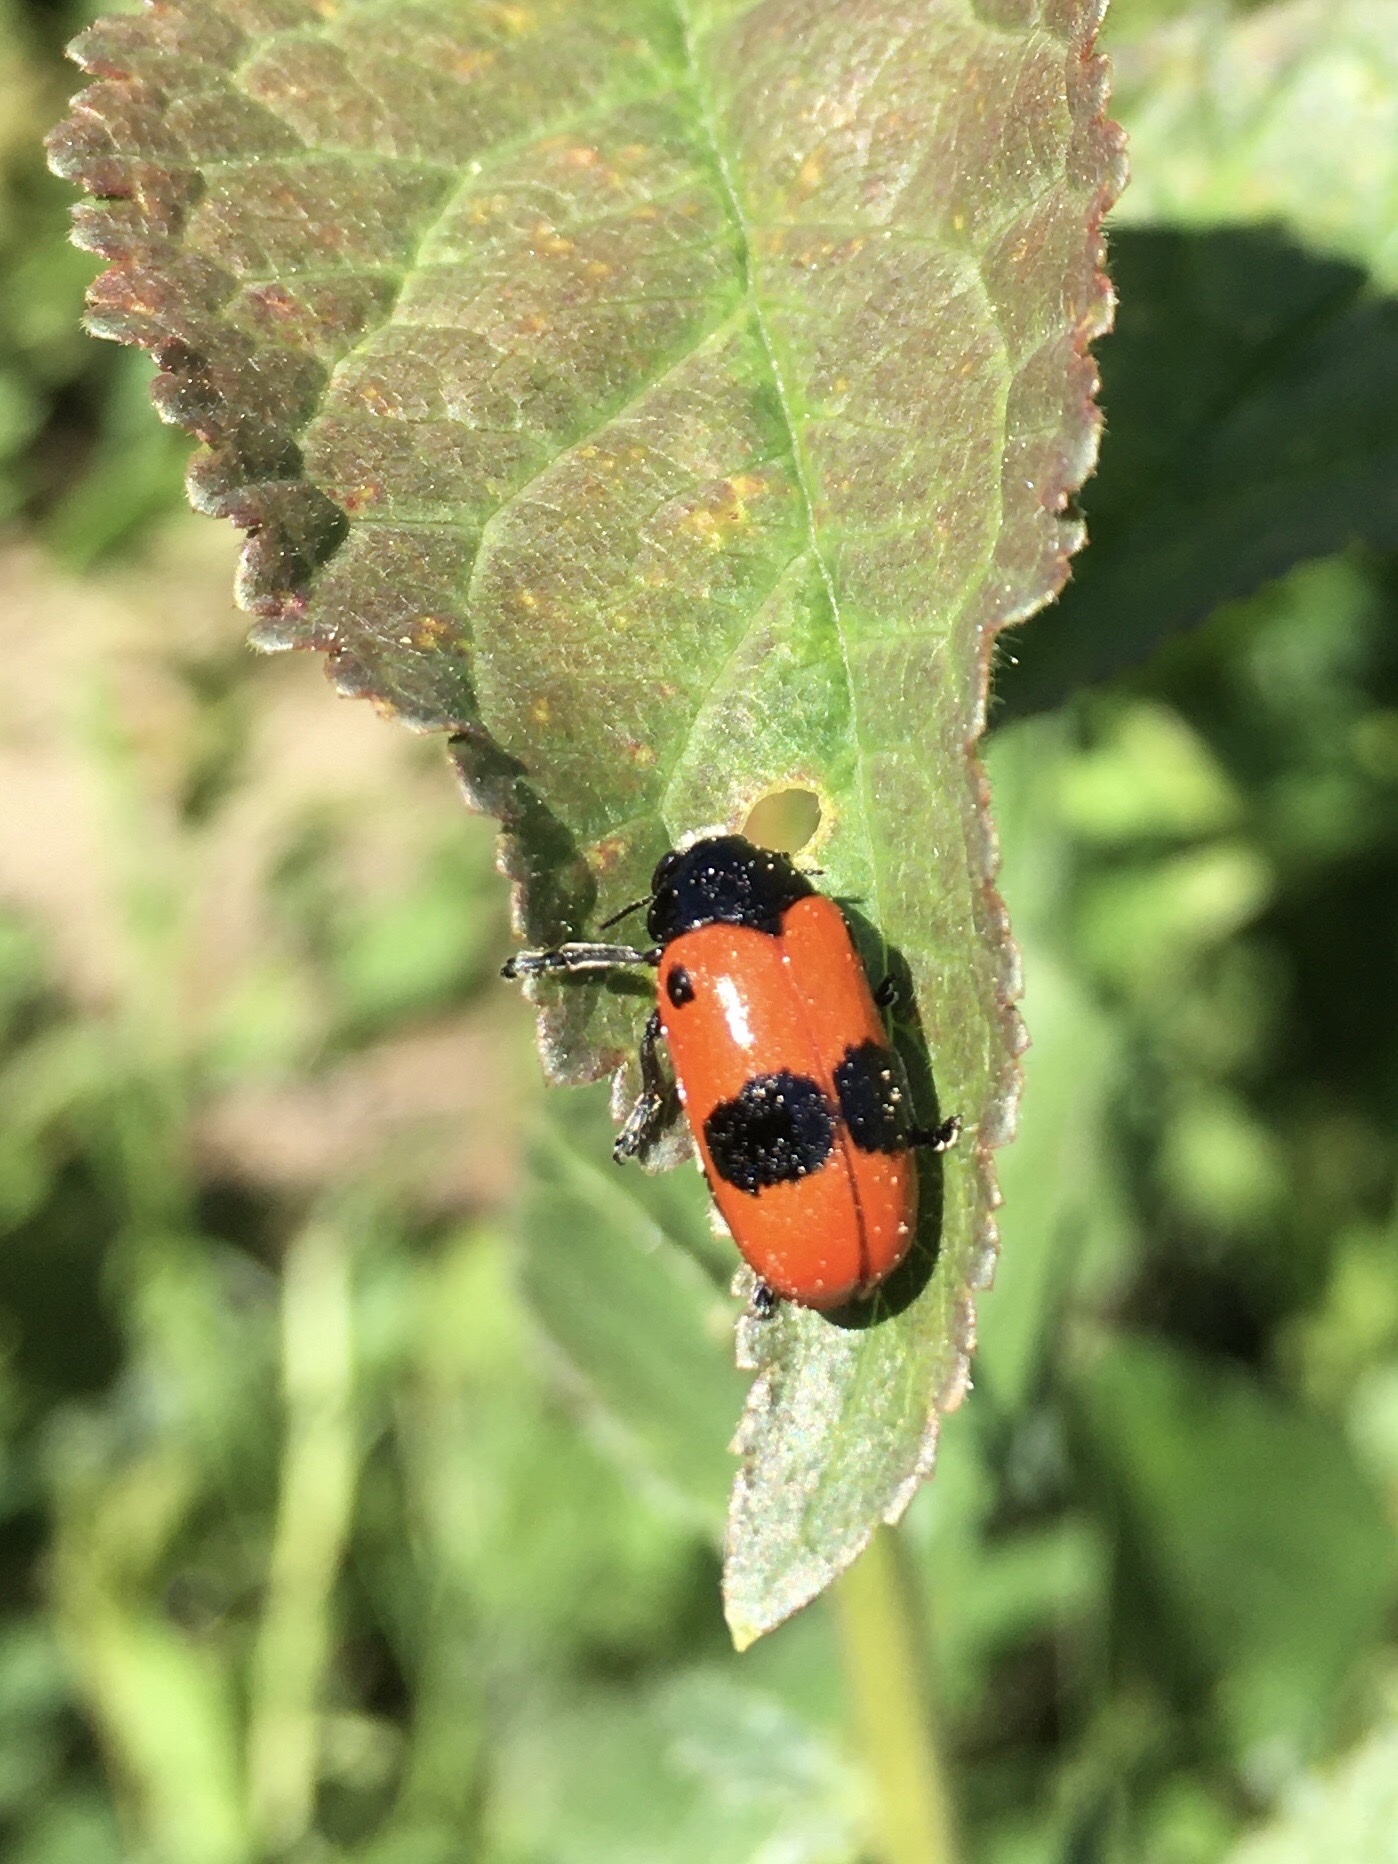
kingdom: Animalia
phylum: Arthropoda
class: Insecta
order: Coleoptera
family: Chrysomelidae
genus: Clytra
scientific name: Clytra laeviuscula
